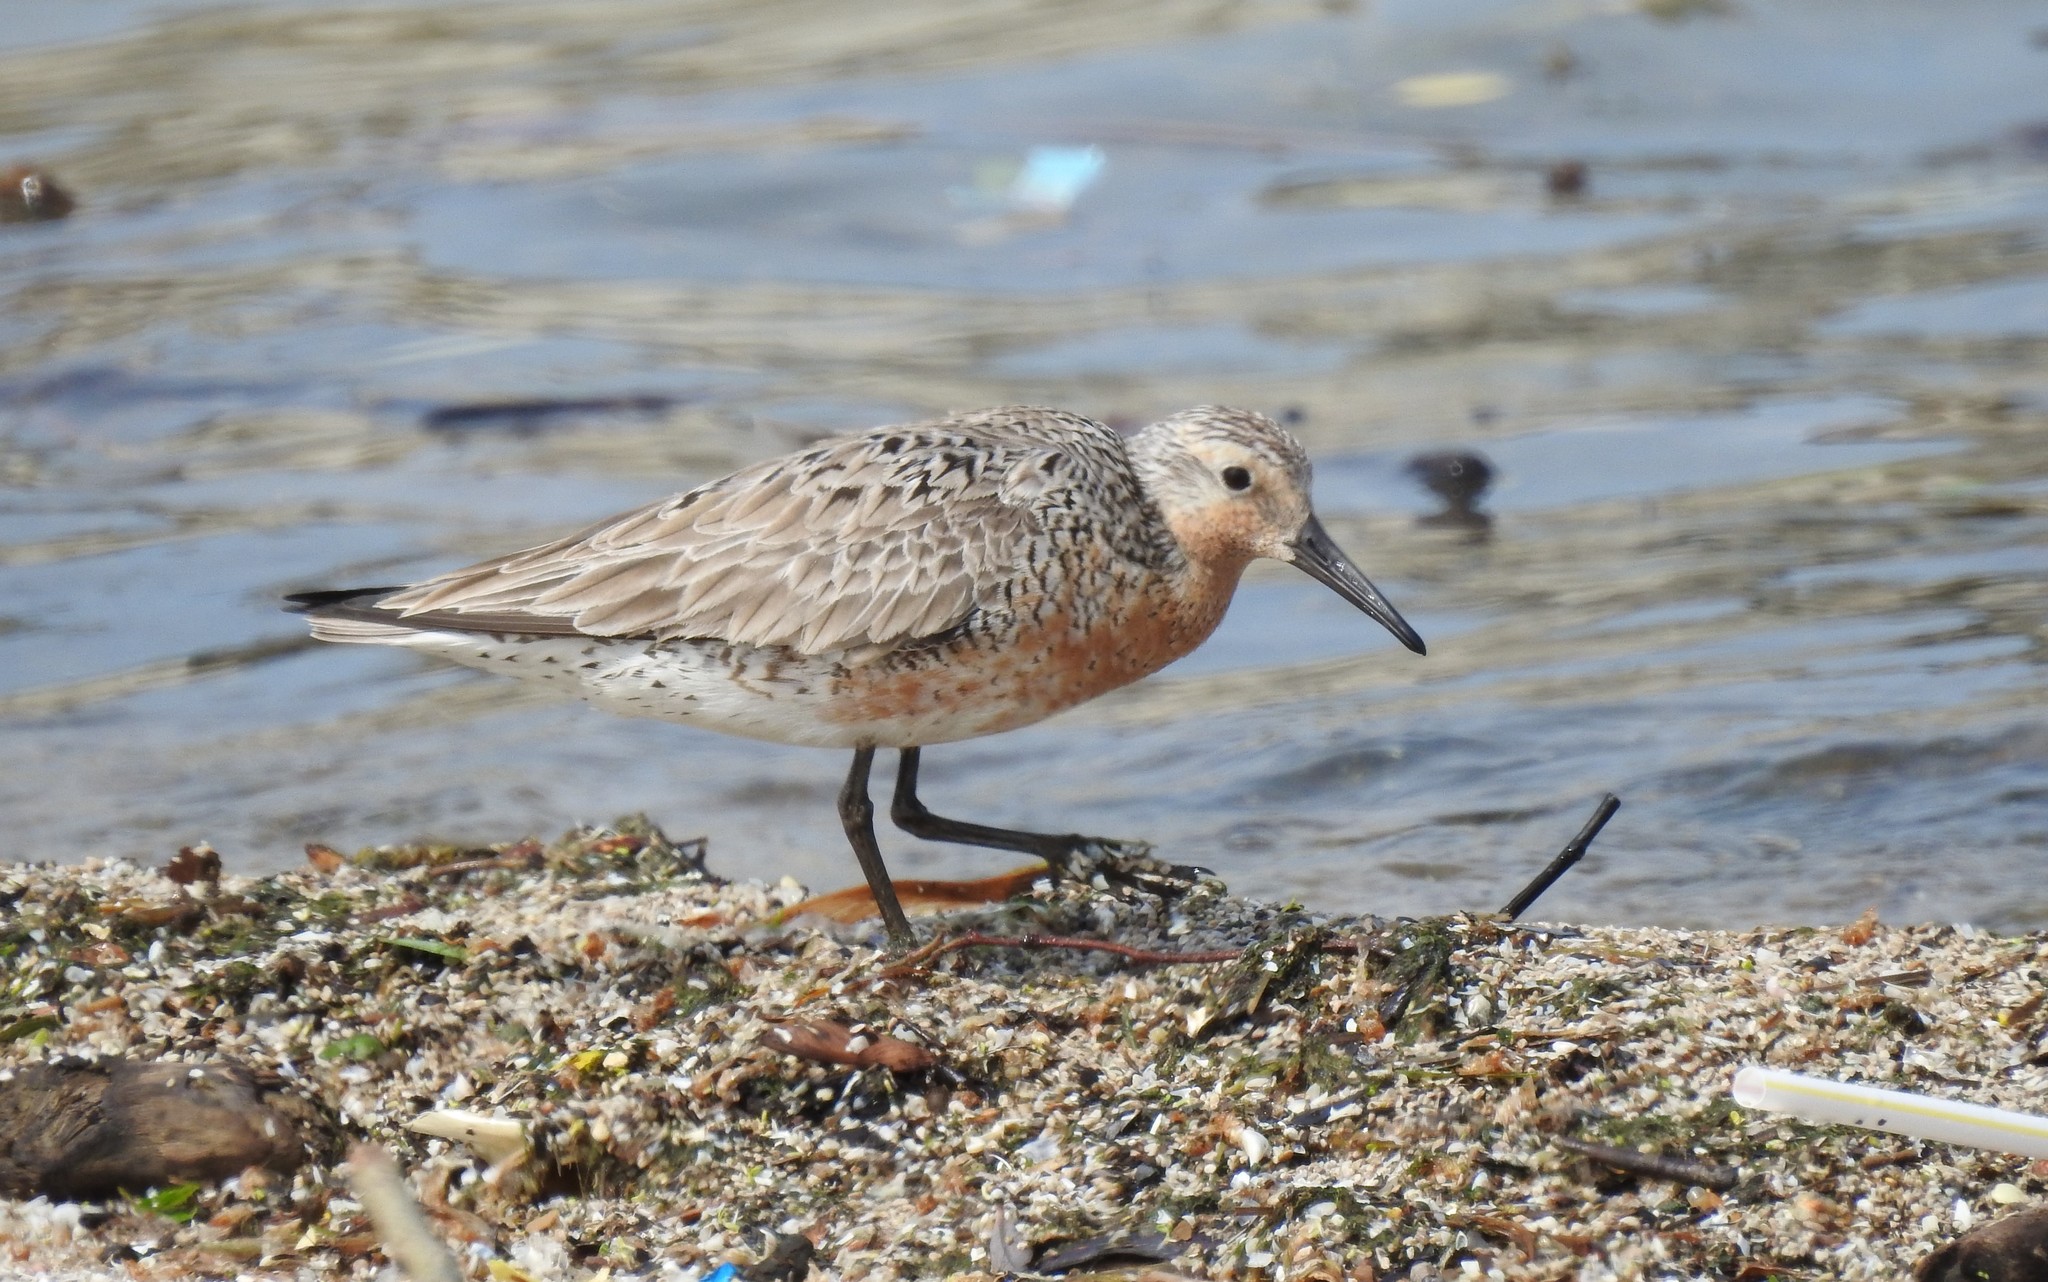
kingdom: Animalia
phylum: Chordata
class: Aves
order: Charadriiformes
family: Scolopacidae
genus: Calidris
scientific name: Calidris canutus
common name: Red knot
